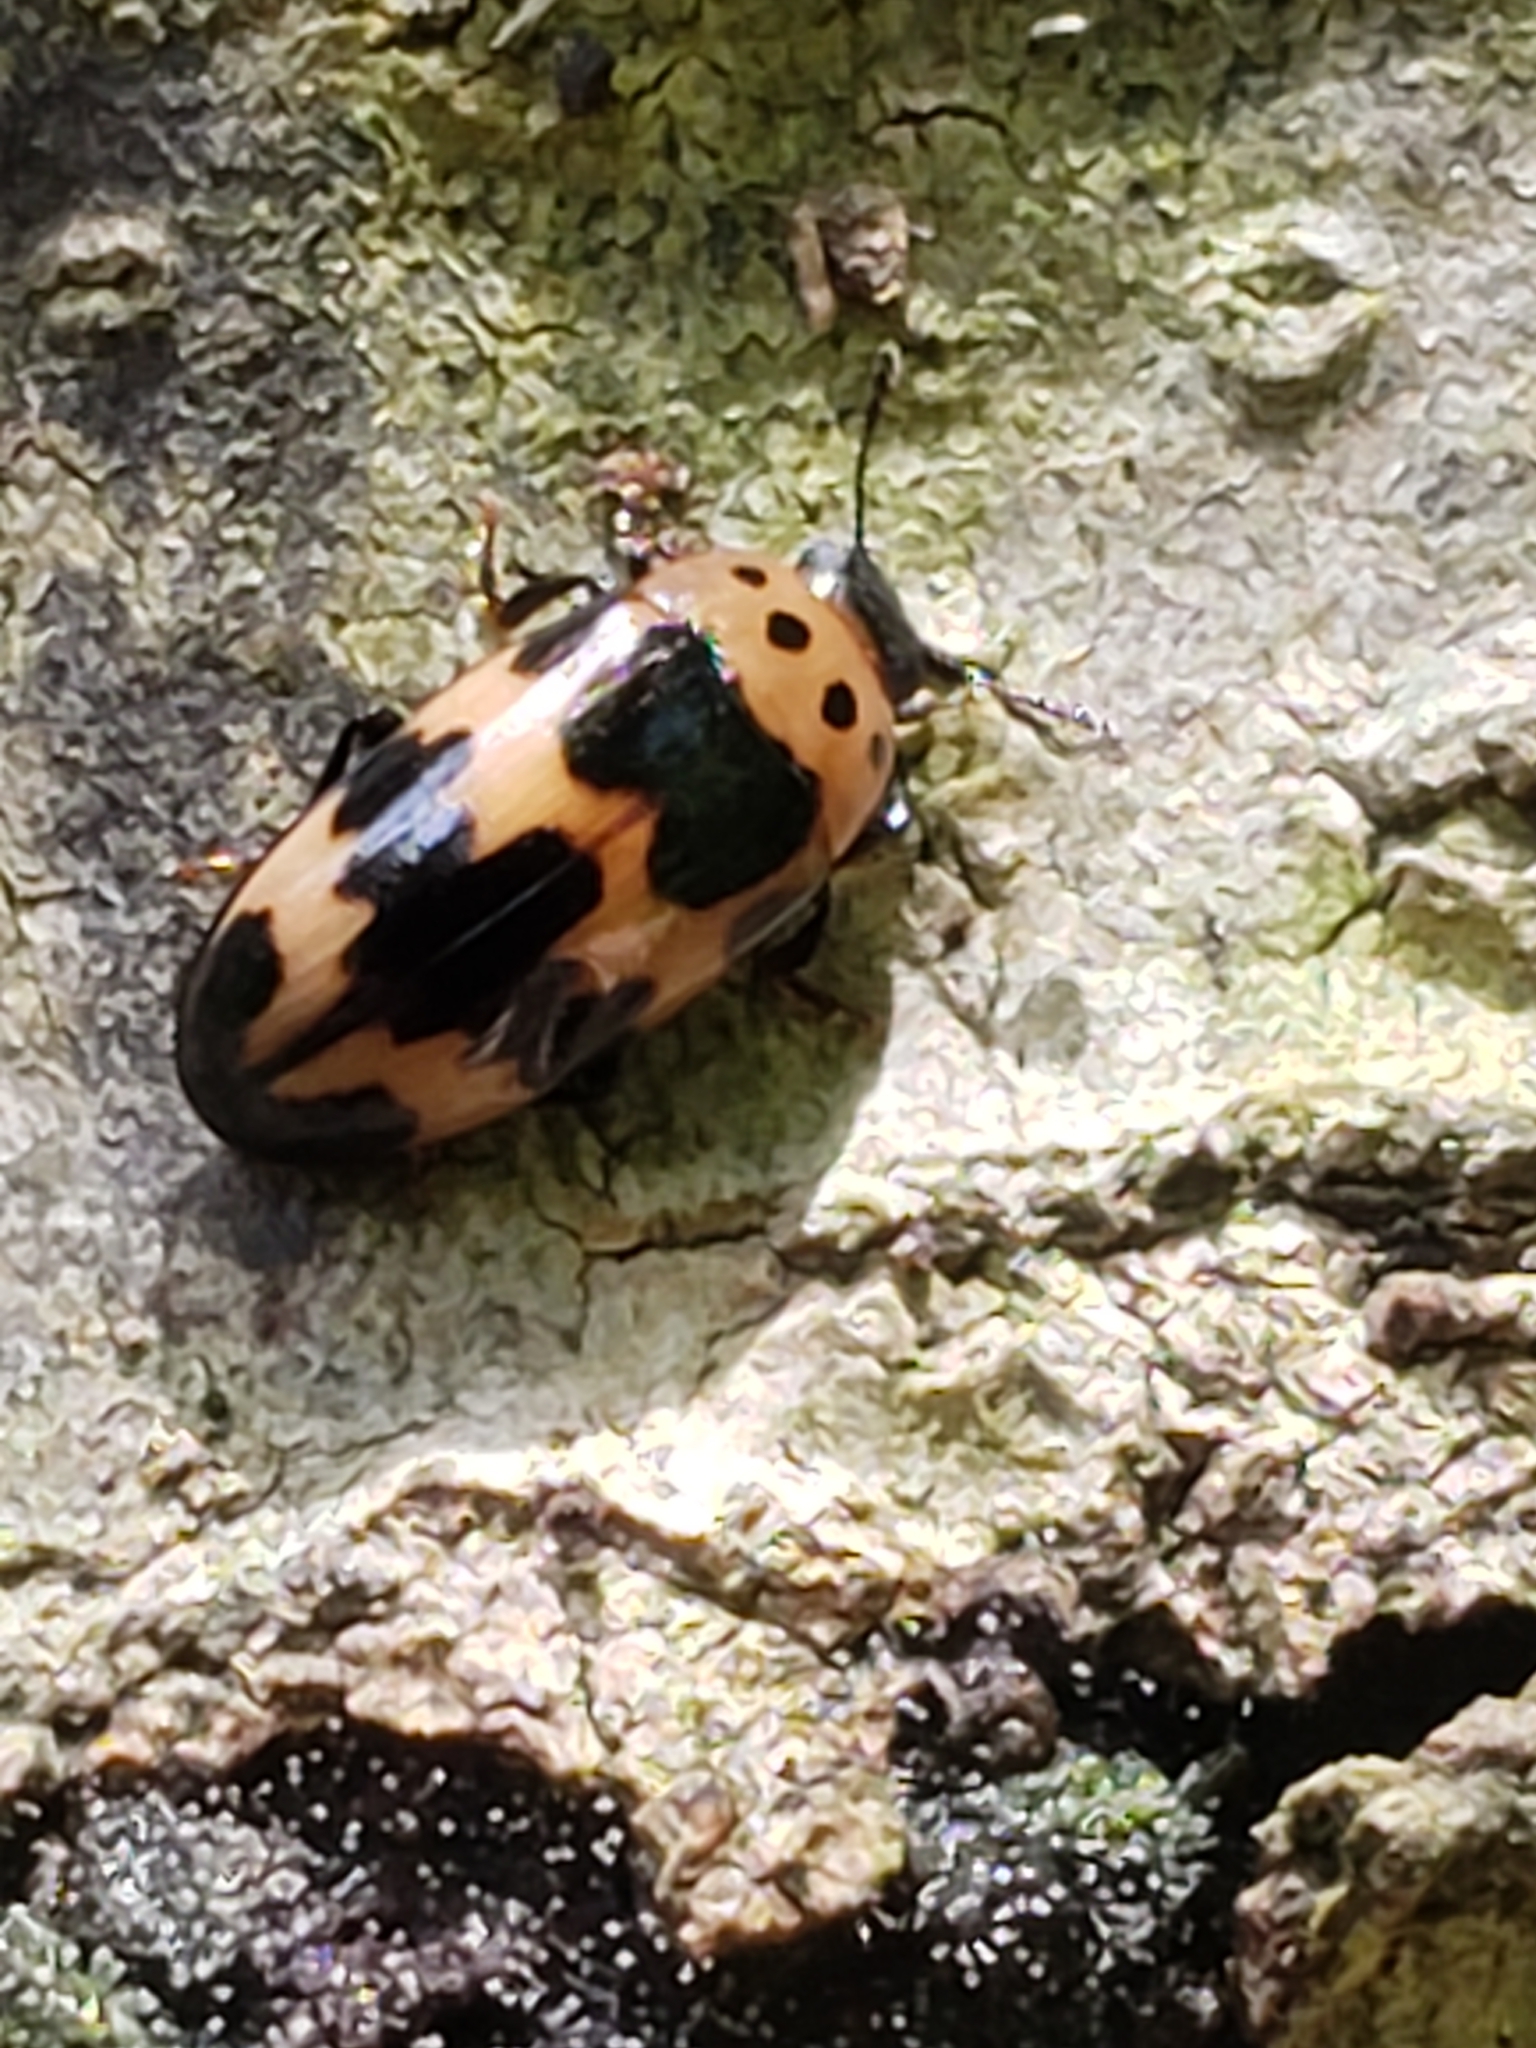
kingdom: Animalia
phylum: Arthropoda
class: Insecta
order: Coleoptera
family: Erotylidae
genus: Ischyrus
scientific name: Ischyrus quadripunctatus
